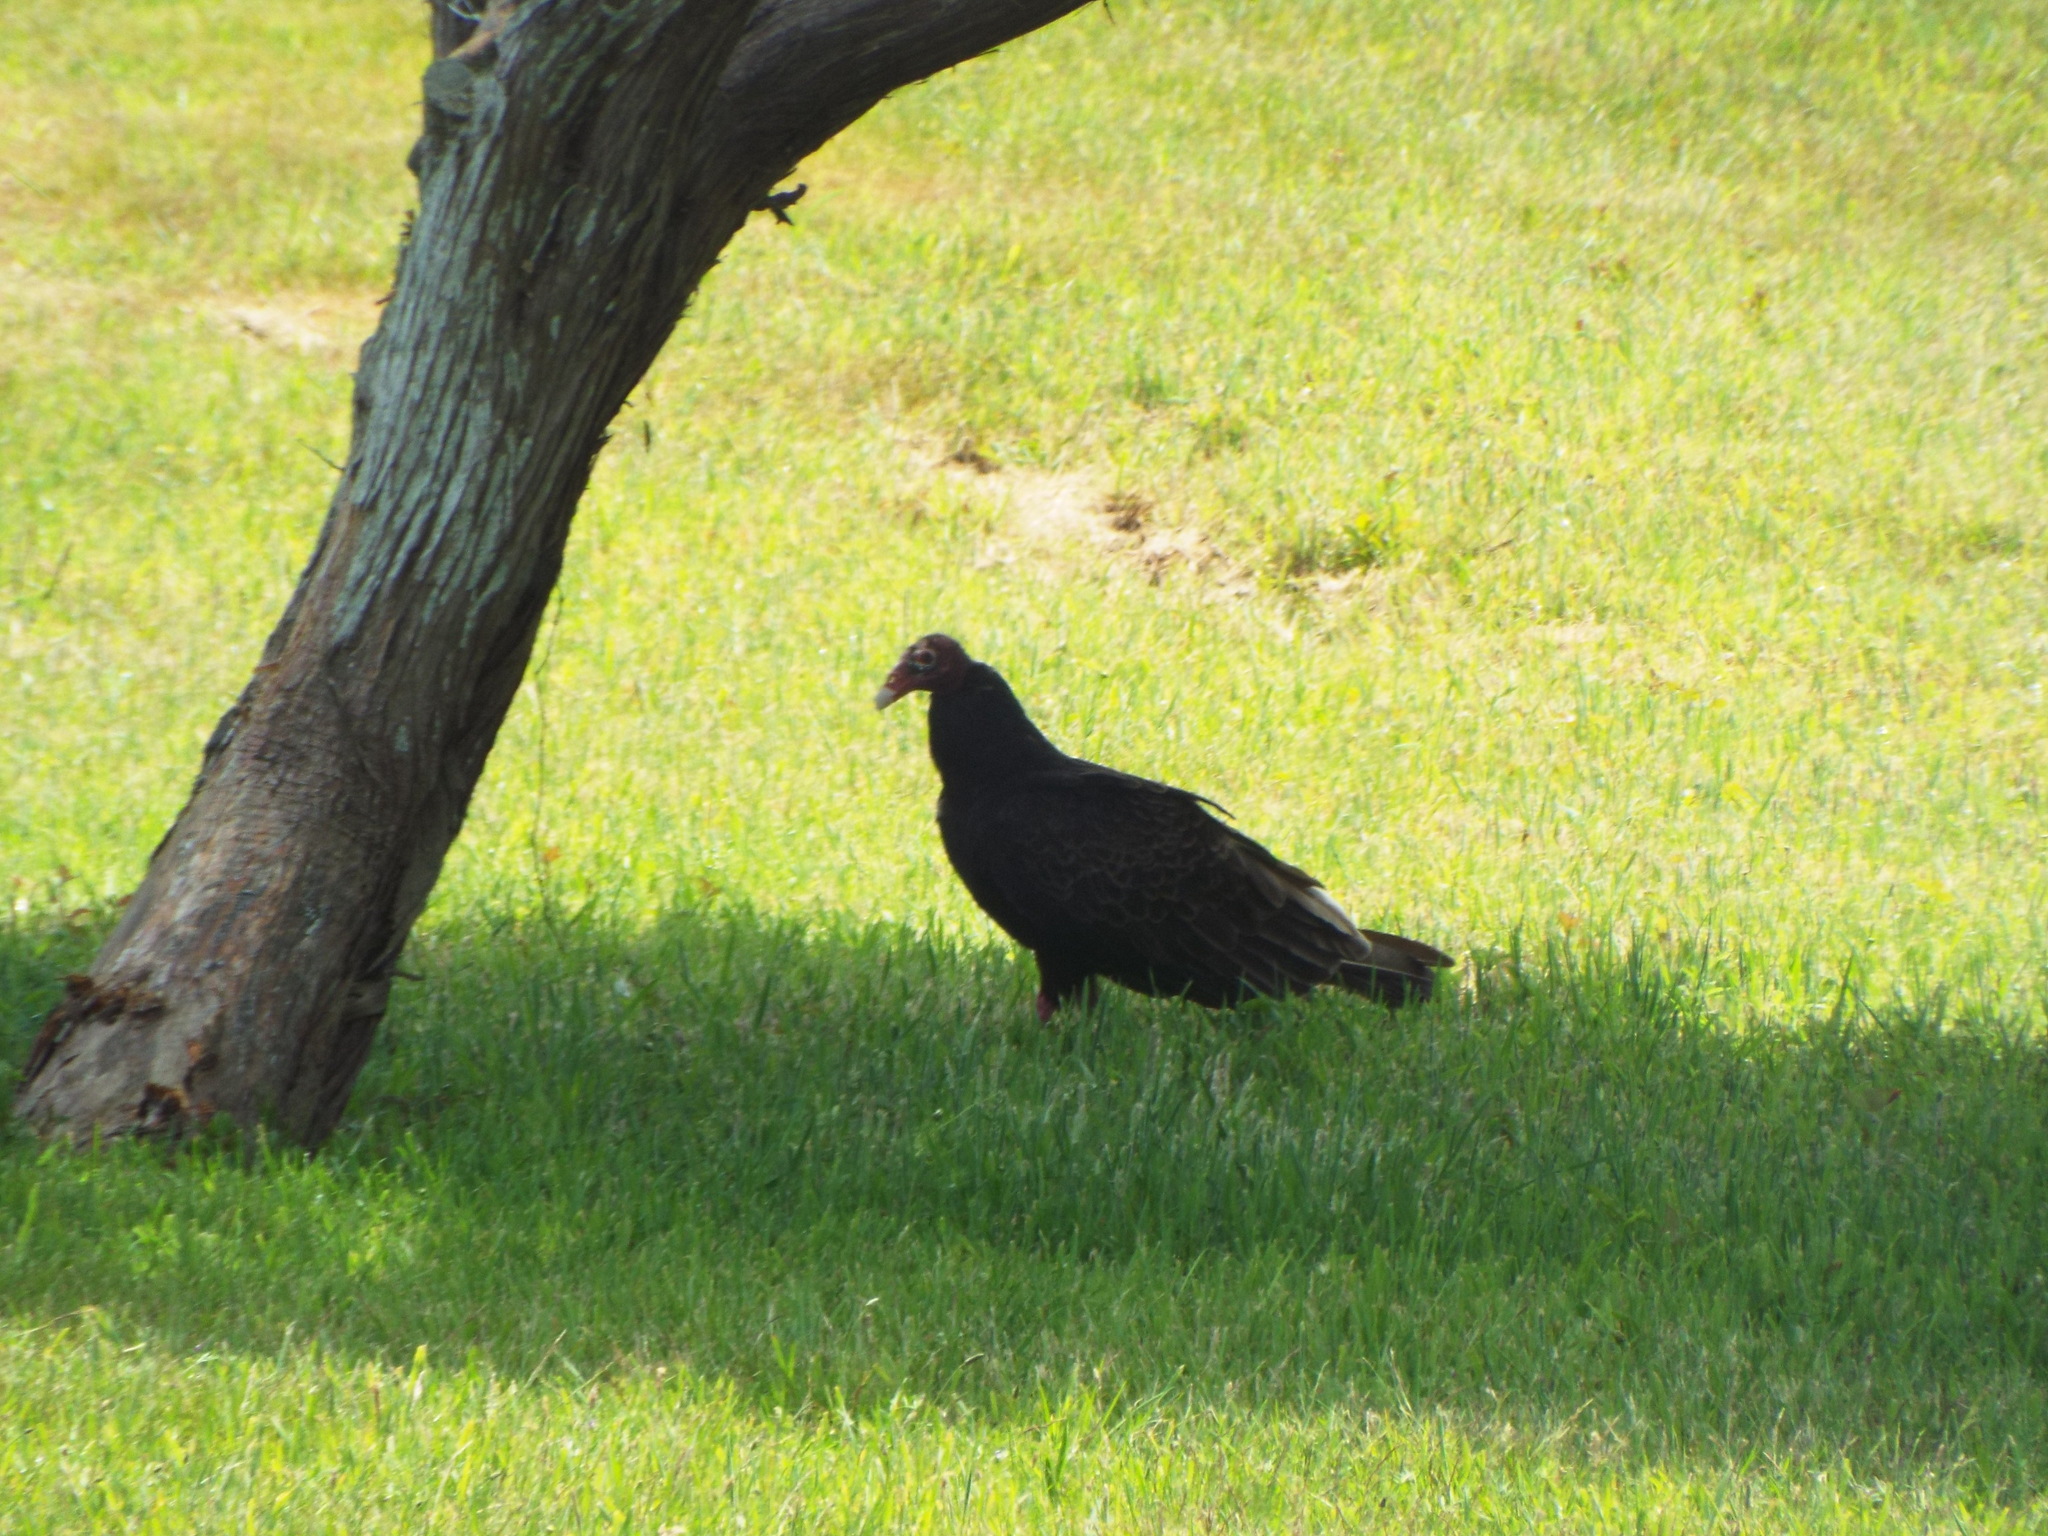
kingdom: Animalia
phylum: Chordata
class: Aves
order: Accipitriformes
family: Cathartidae
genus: Cathartes
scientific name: Cathartes aura
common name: Turkey vulture
